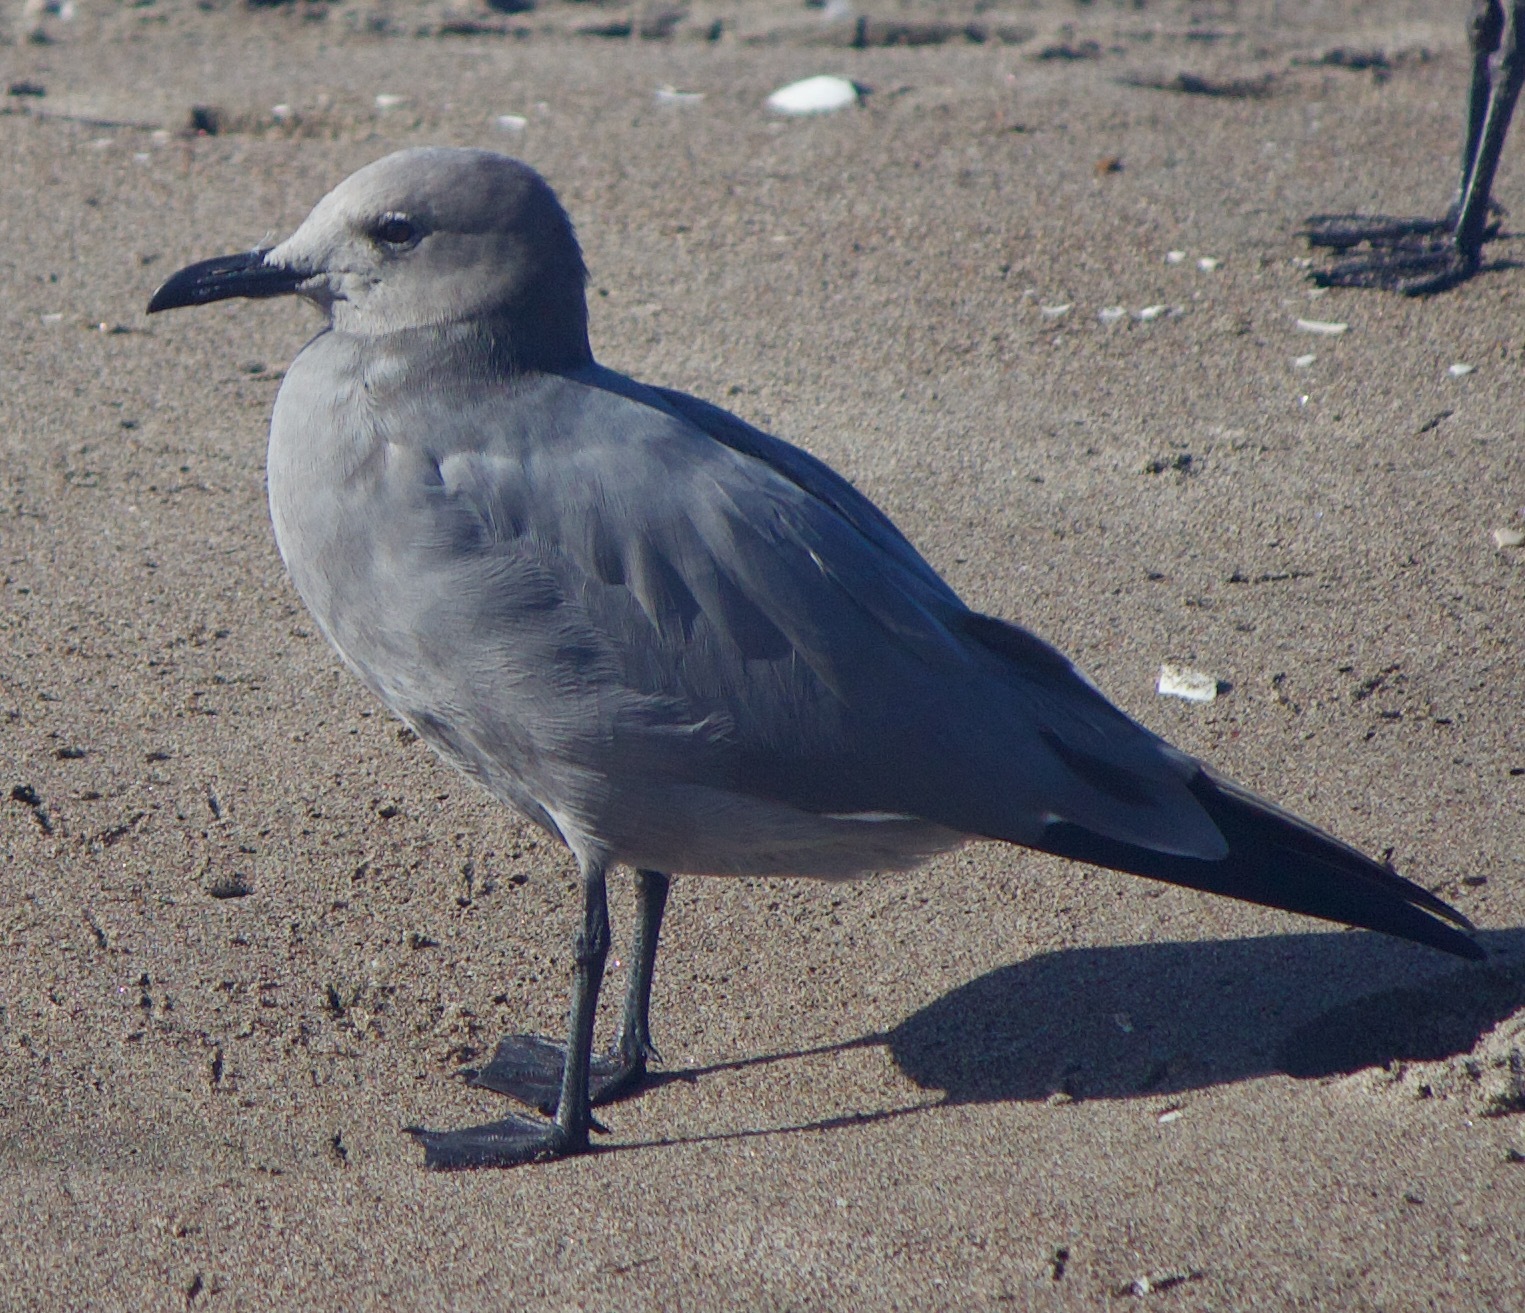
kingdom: Animalia
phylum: Chordata
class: Aves
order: Charadriiformes
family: Laridae
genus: Leucophaeus
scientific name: Leucophaeus modestus
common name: Gray gull
